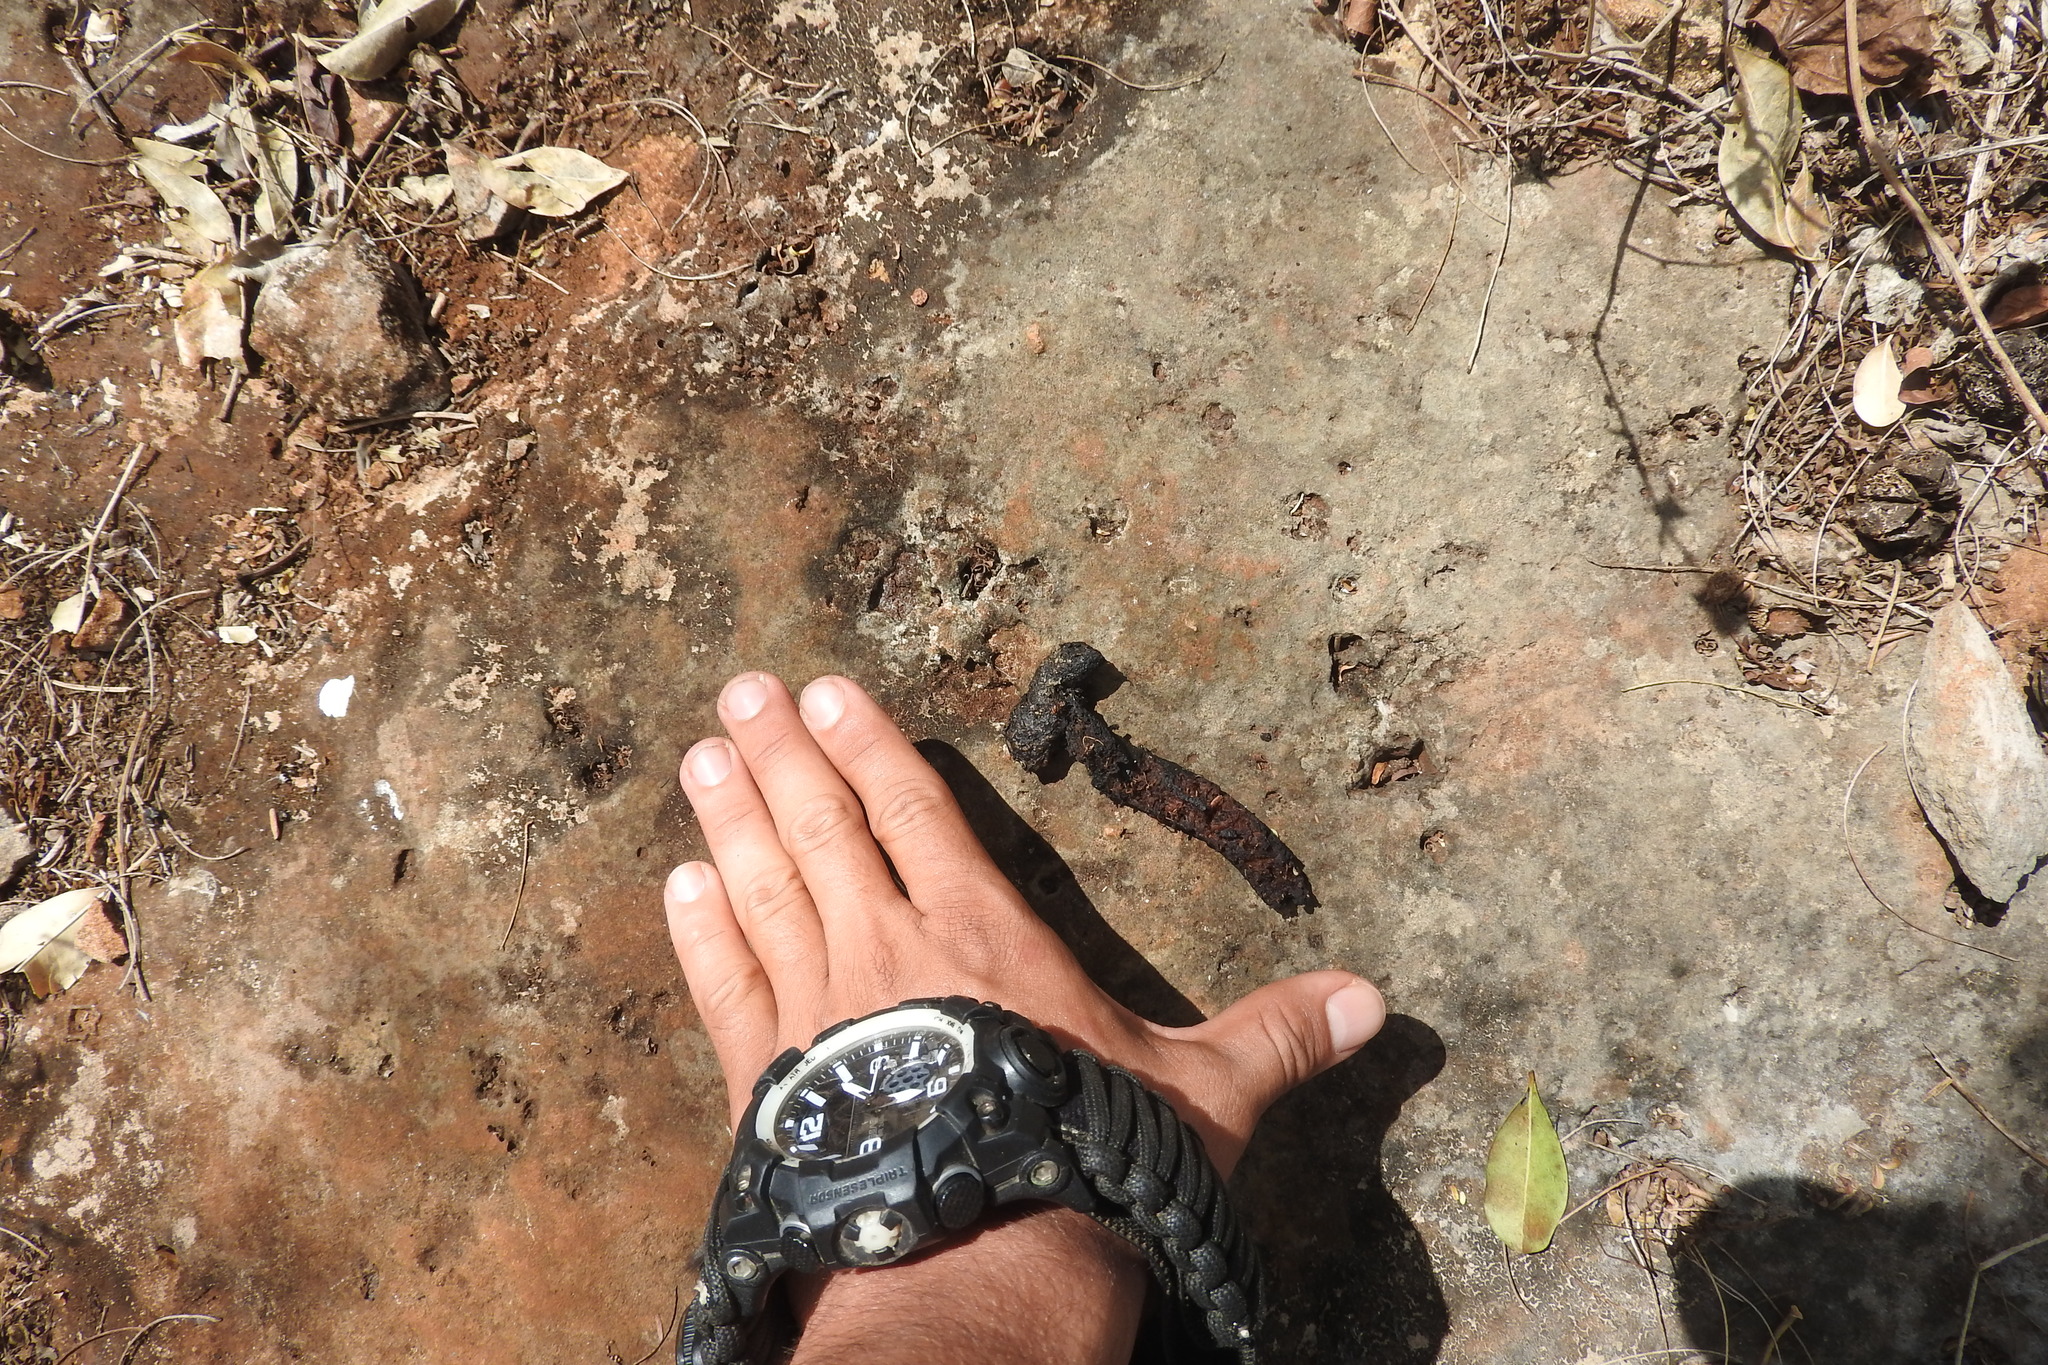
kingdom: Animalia
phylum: Chordata
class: Mammalia
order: Carnivora
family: Canidae
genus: Urocyon
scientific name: Urocyon cinereoargenteus
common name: Gray fox
